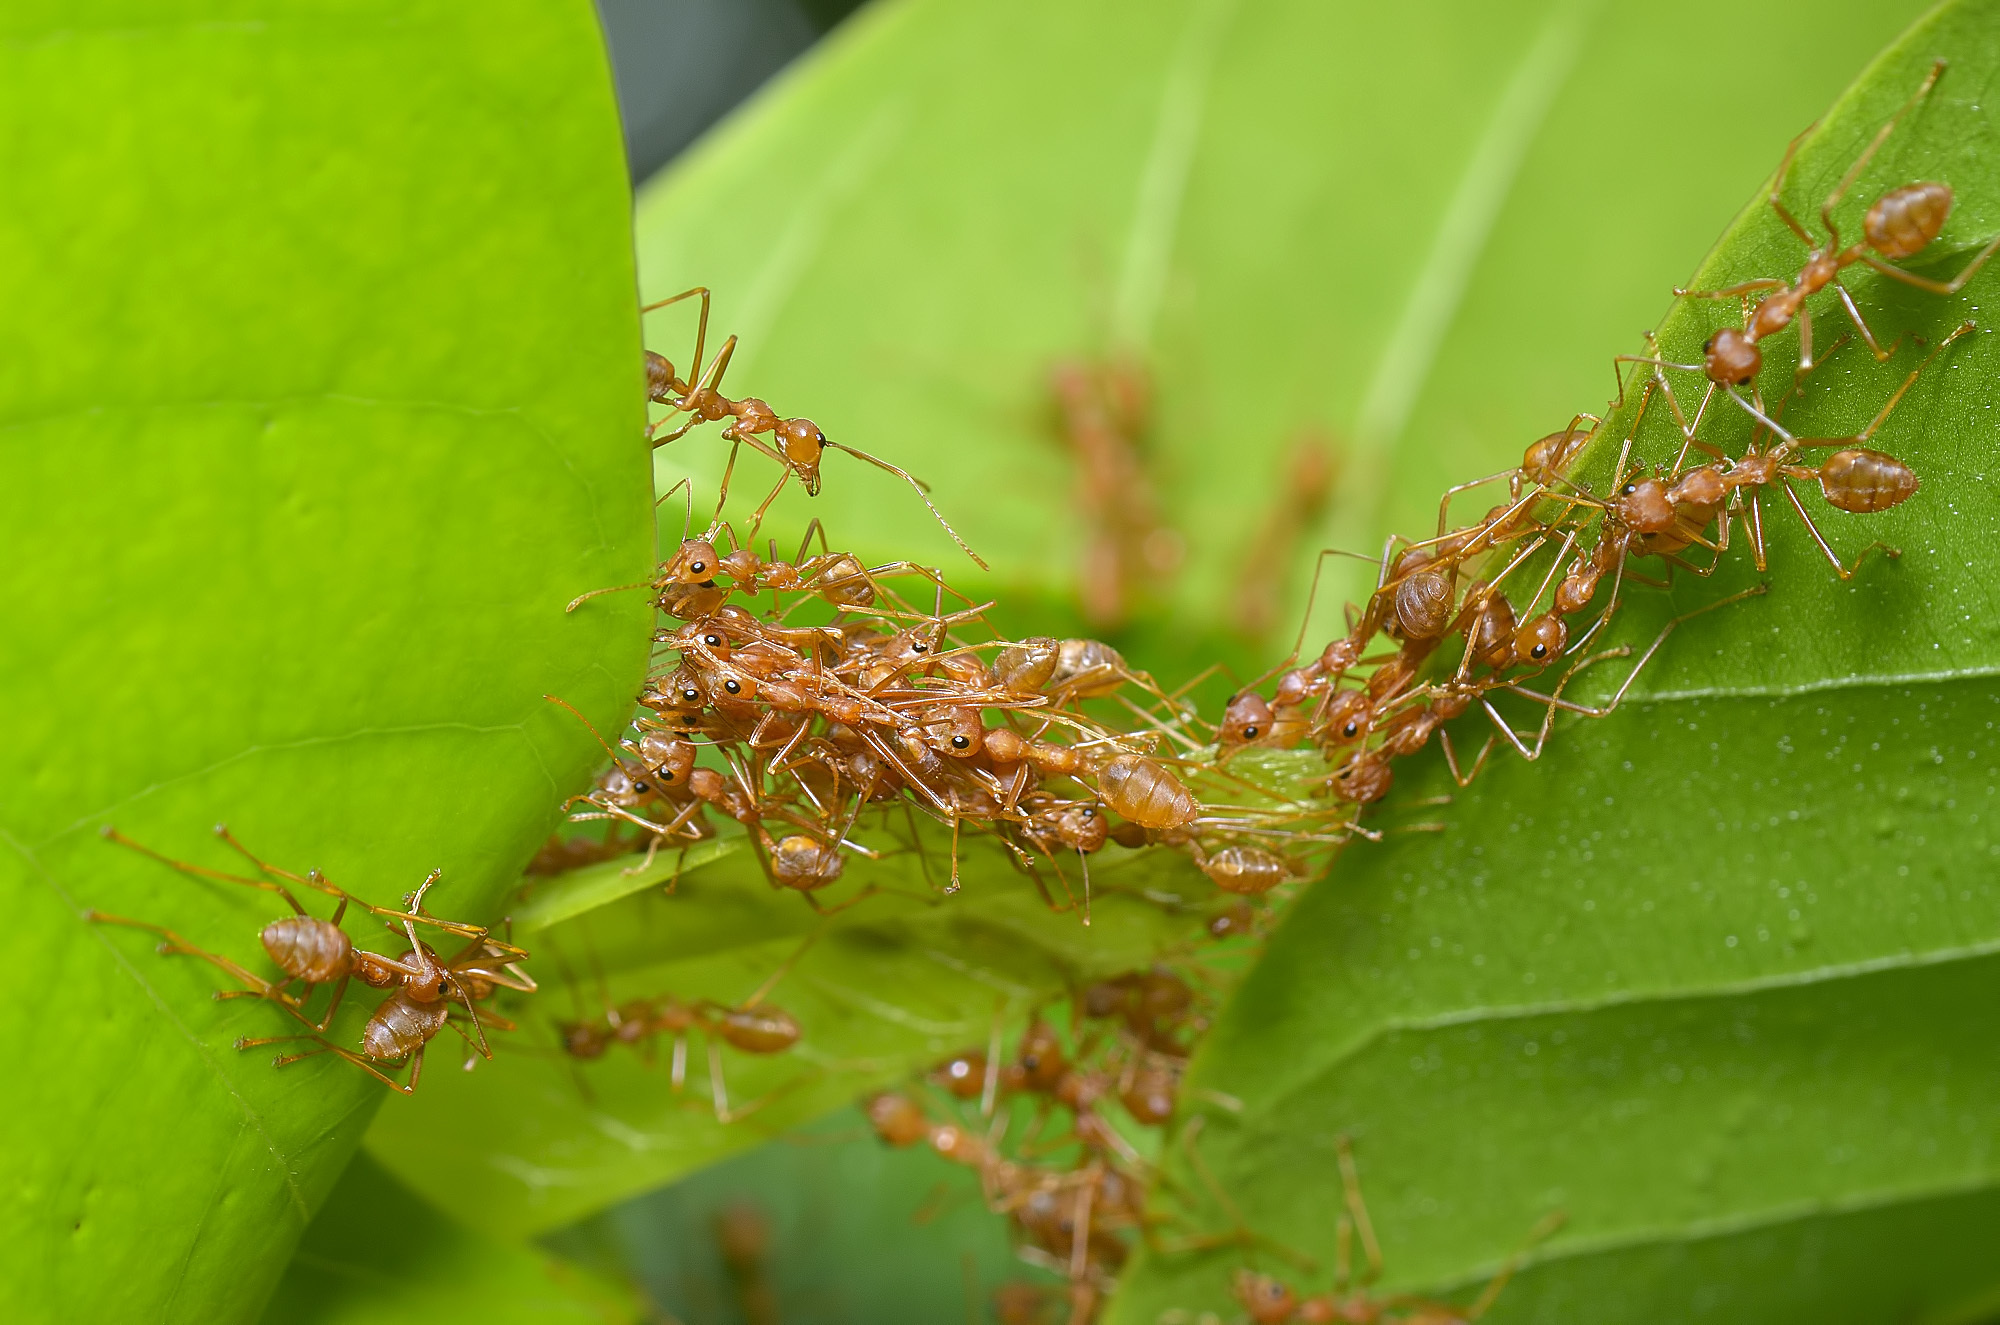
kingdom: Animalia
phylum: Arthropoda
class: Insecta
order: Hymenoptera
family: Formicidae
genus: Oecophylla
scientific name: Oecophylla smaragdina
